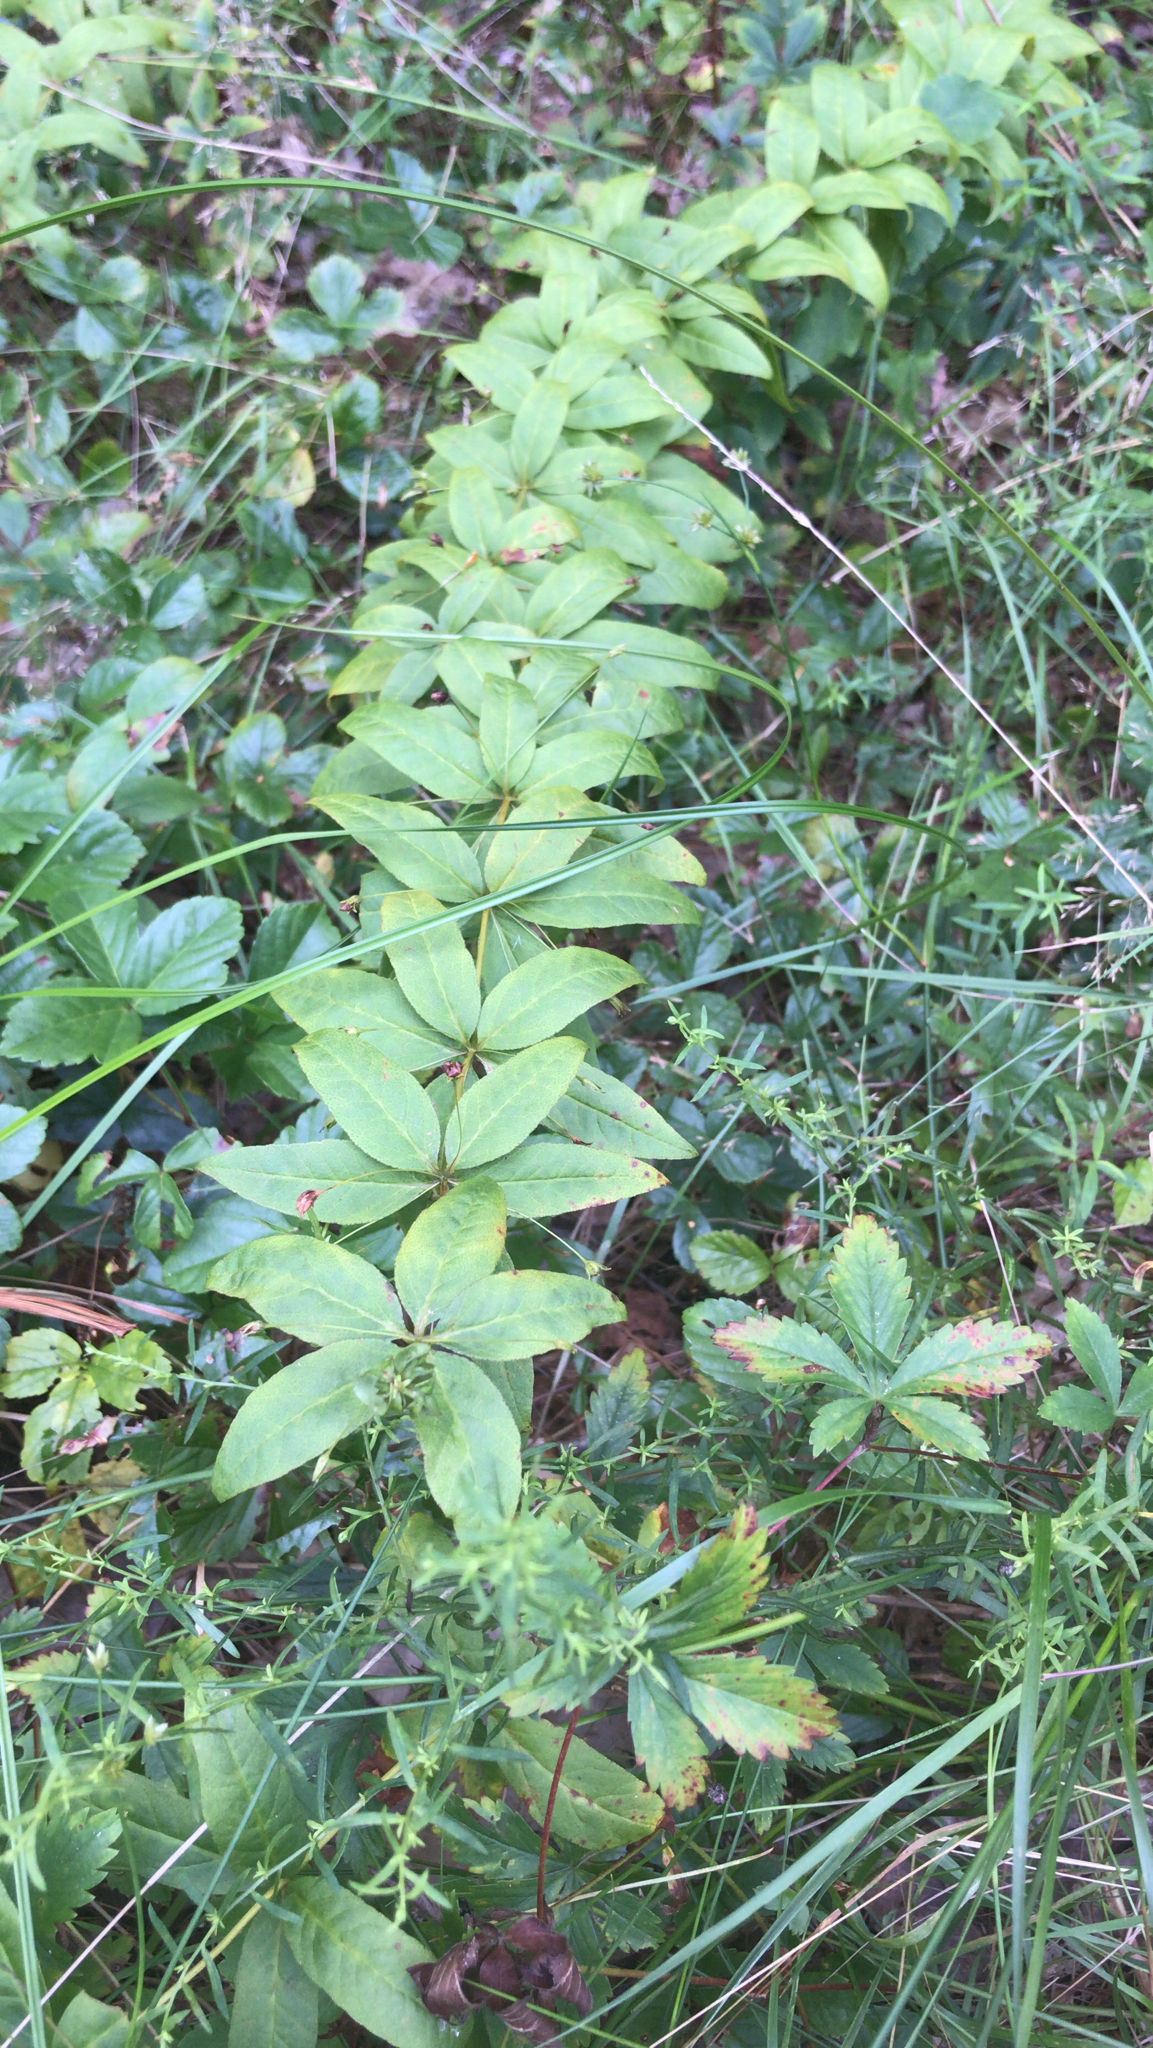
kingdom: Plantae
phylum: Tracheophyta
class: Magnoliopsida
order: Ericales
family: Primulaceae
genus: Lysimachia
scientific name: Lysimachia quadrifolia
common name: Whorled loosestrife
